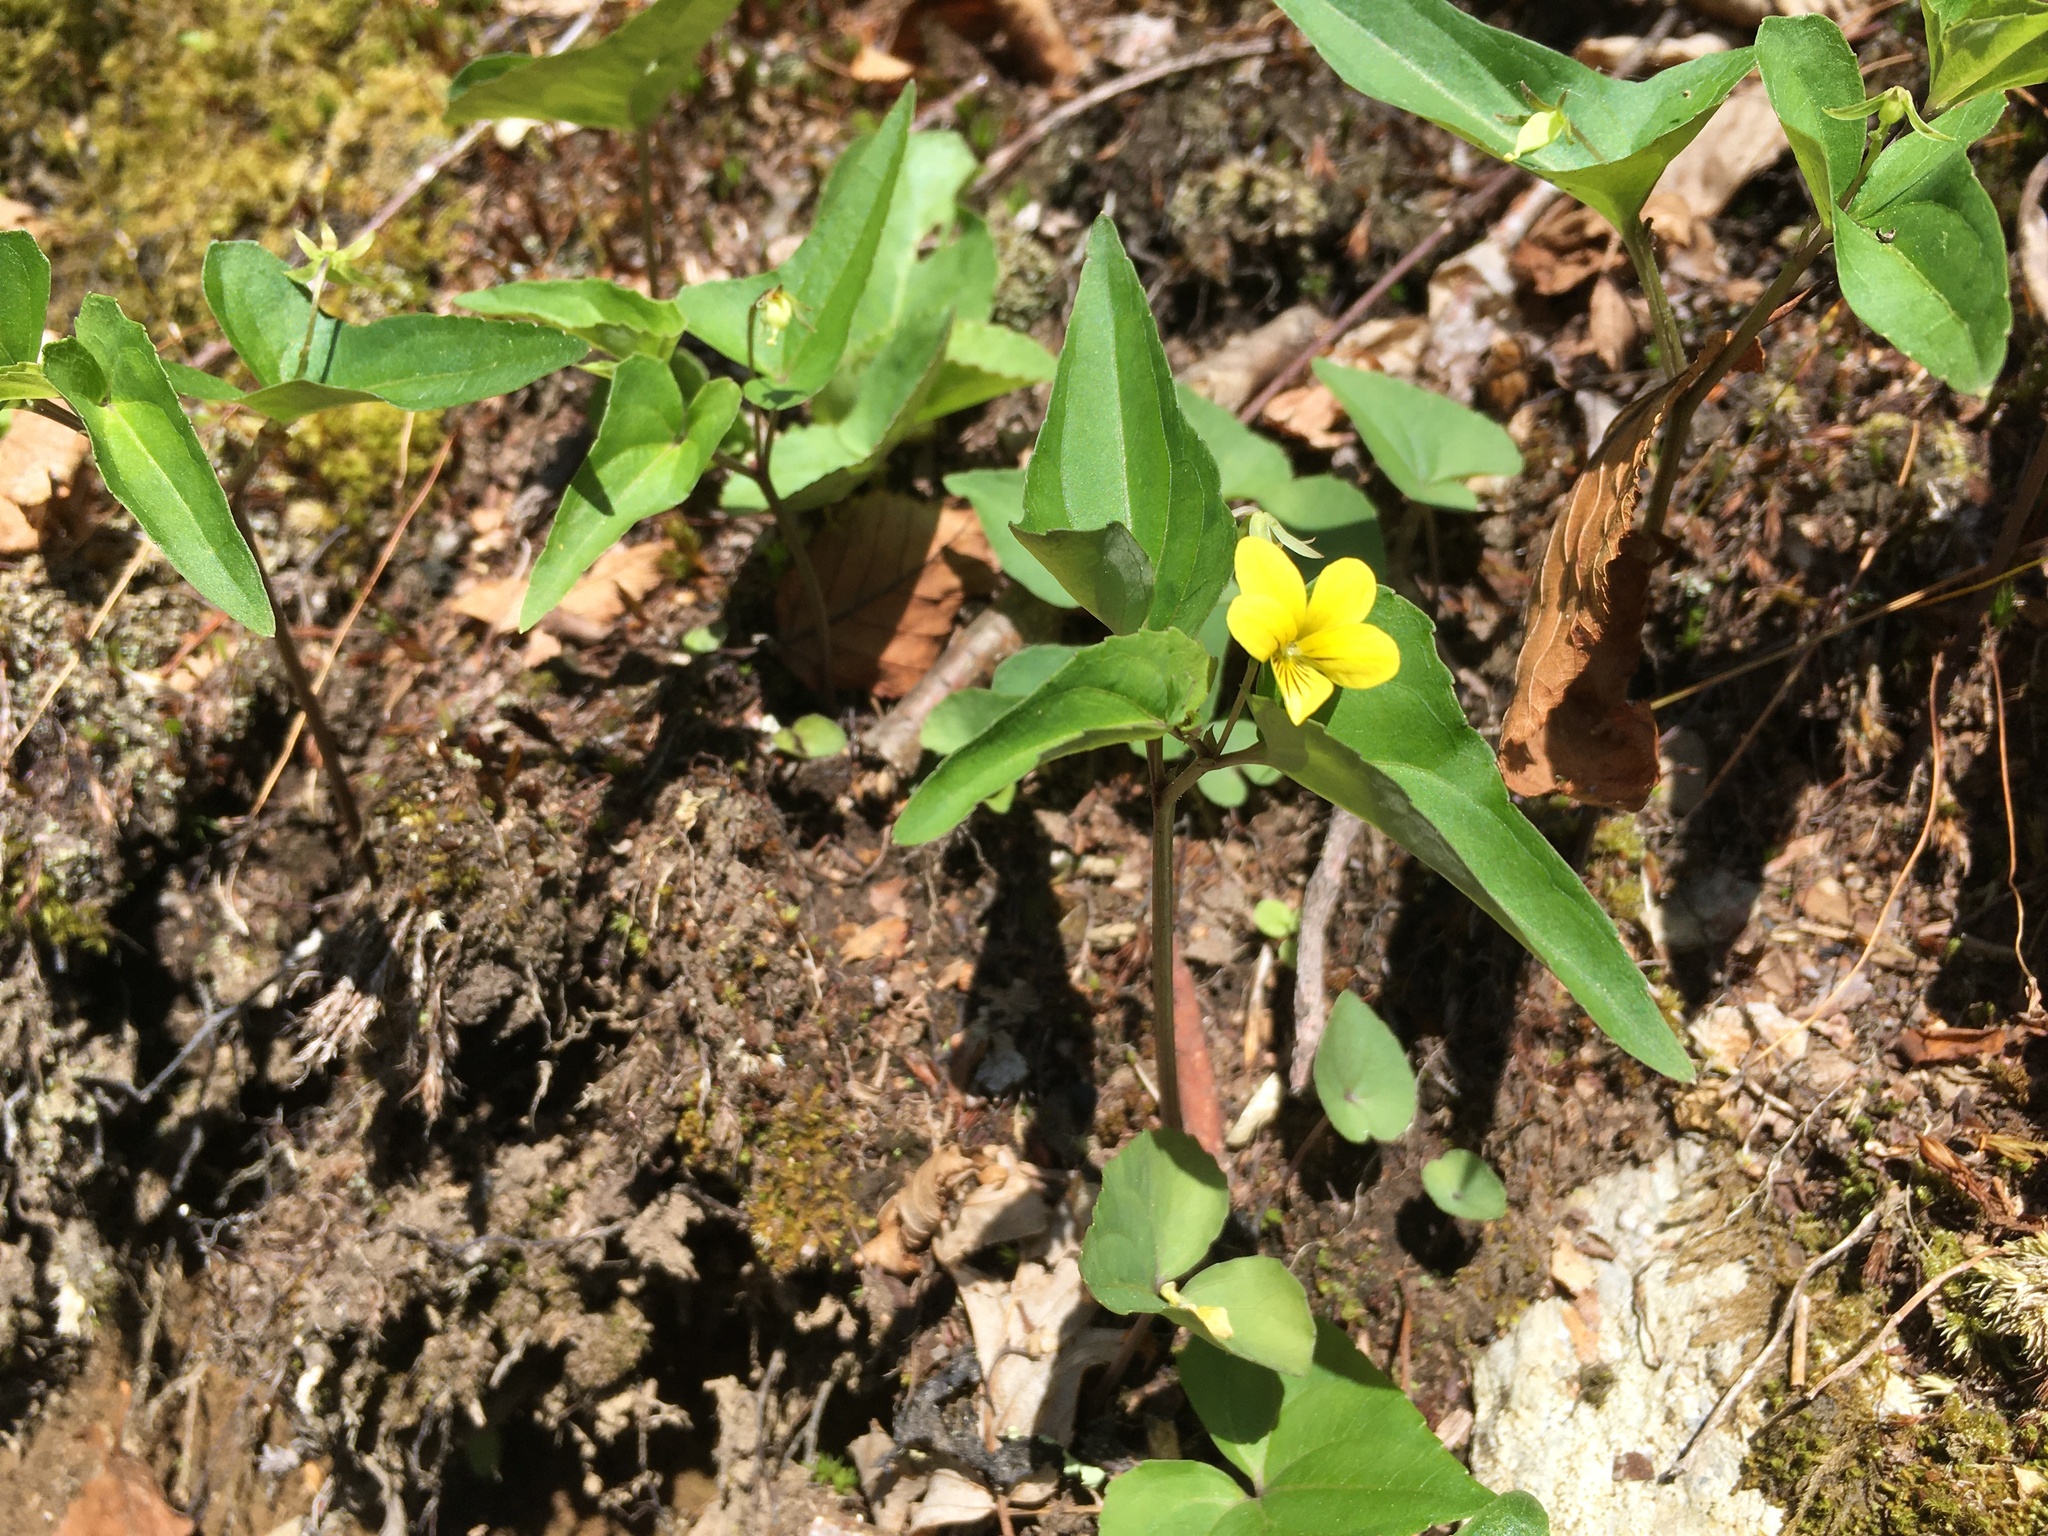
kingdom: Plantae
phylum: Tracheophyta
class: Magnoliopsida
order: Malpighiales
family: Violaceae
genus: Viola
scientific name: Viola hastata
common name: Spear-leaf violet
